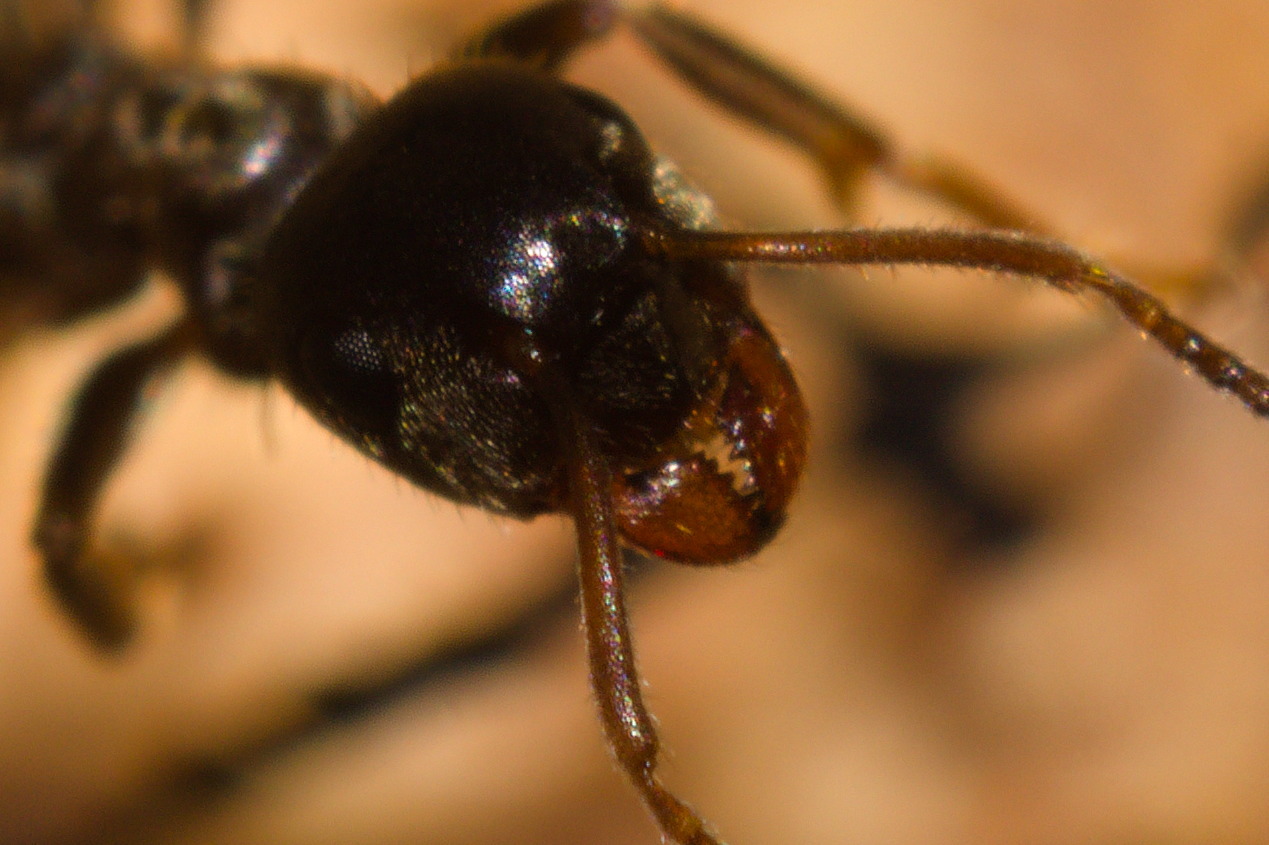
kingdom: Animalia
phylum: Arthropoda
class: Insecta
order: Hymenoptera
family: Formicidae
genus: Lasius
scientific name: Lasius niger
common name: Small black ant
